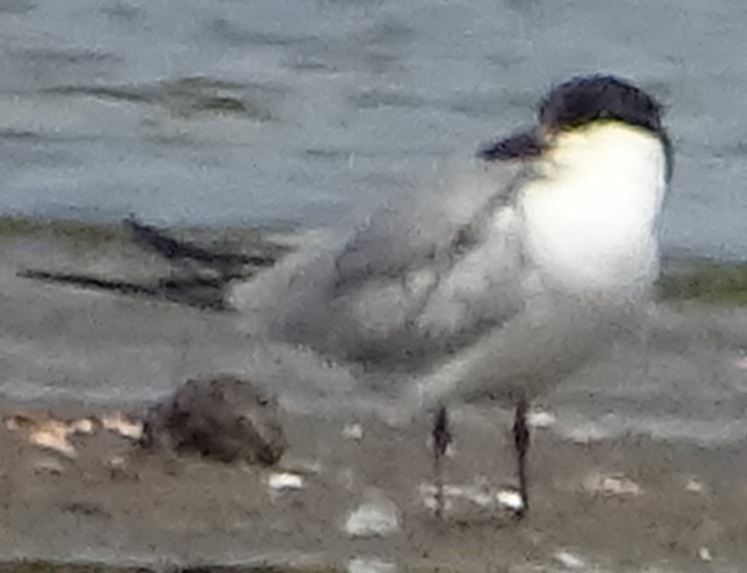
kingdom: Animalia
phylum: Chordata
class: Aves
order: Charadriiformes
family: Laridae
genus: Gelochelidon
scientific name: Gelochelidon nilotica
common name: Gull-billed tern
